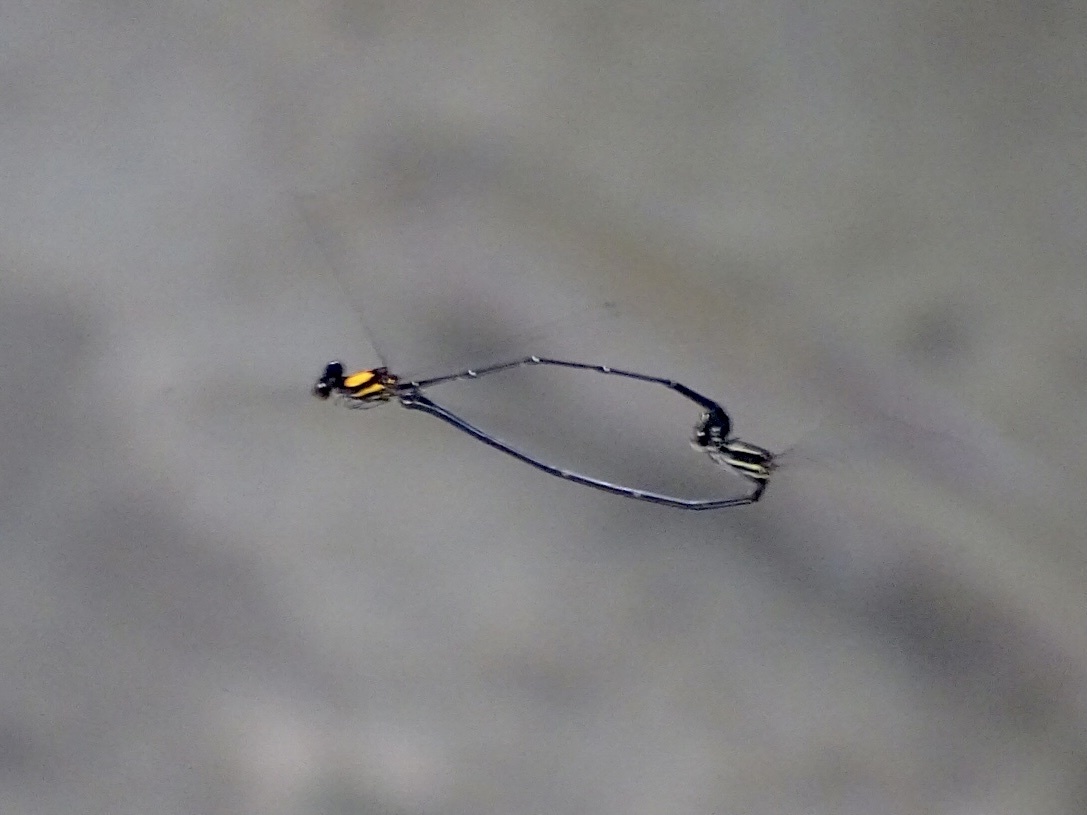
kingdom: Animalia
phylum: Arthropoda
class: Insecta
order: Odonata
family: Platycnemididae
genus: Prodasineura
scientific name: Prodasineura croconota
